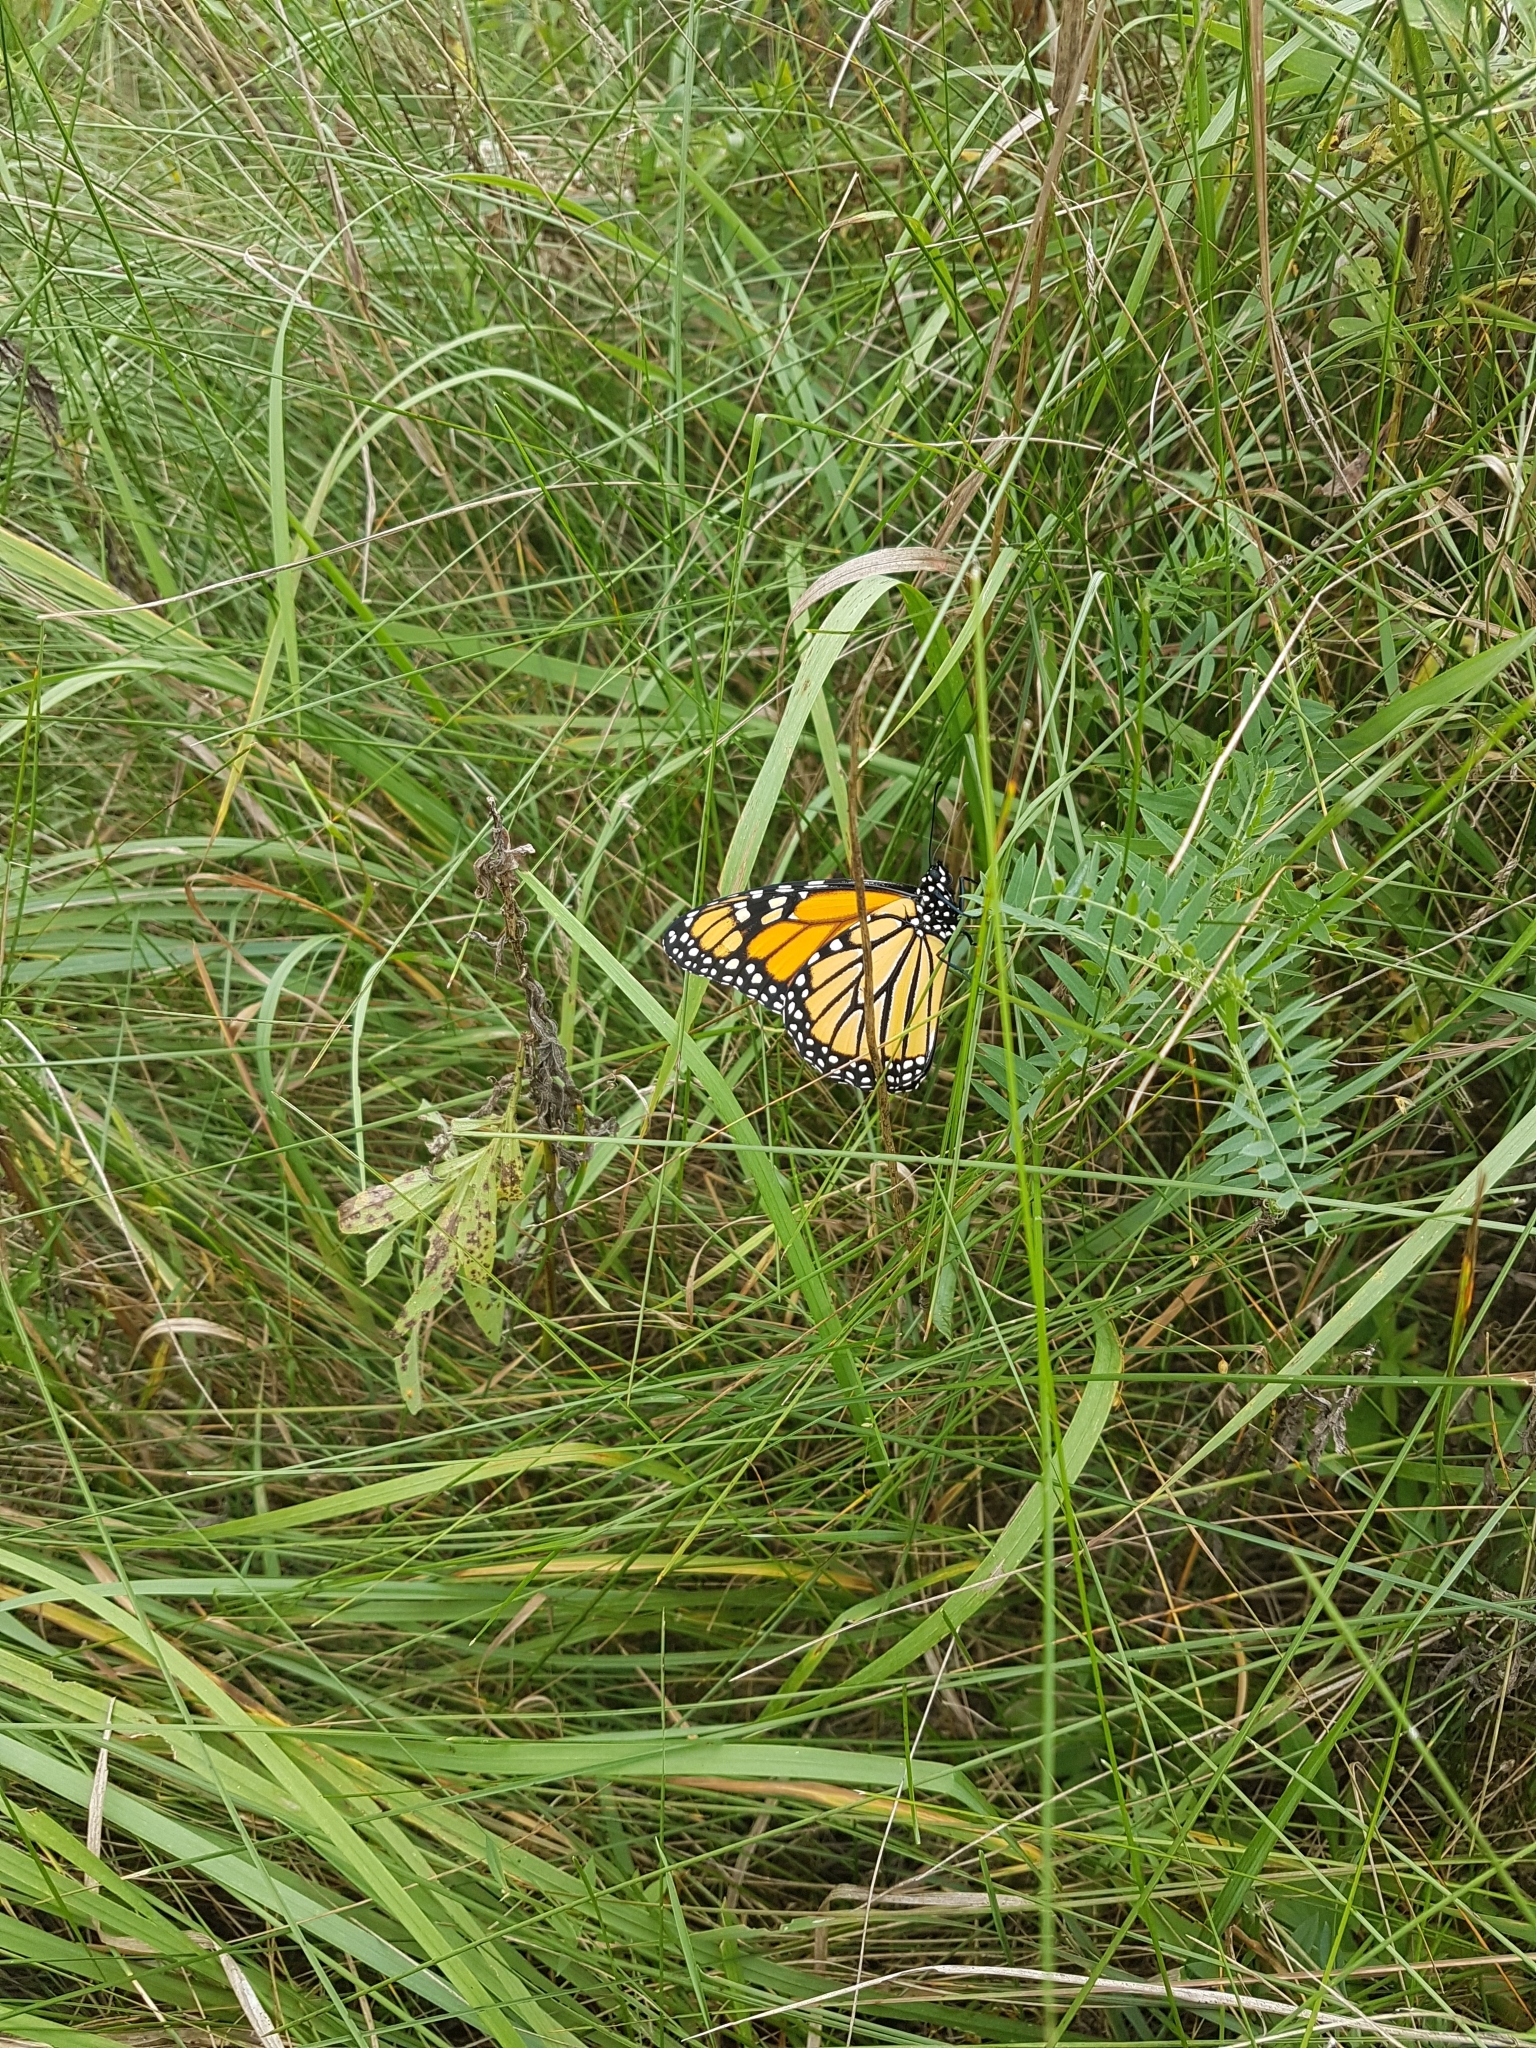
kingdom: Animalia
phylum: Arthropoda
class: Insecta
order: Lepidoptera
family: Nymphalidae
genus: Danaus
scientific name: Danaus plexippus
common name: Monarch
